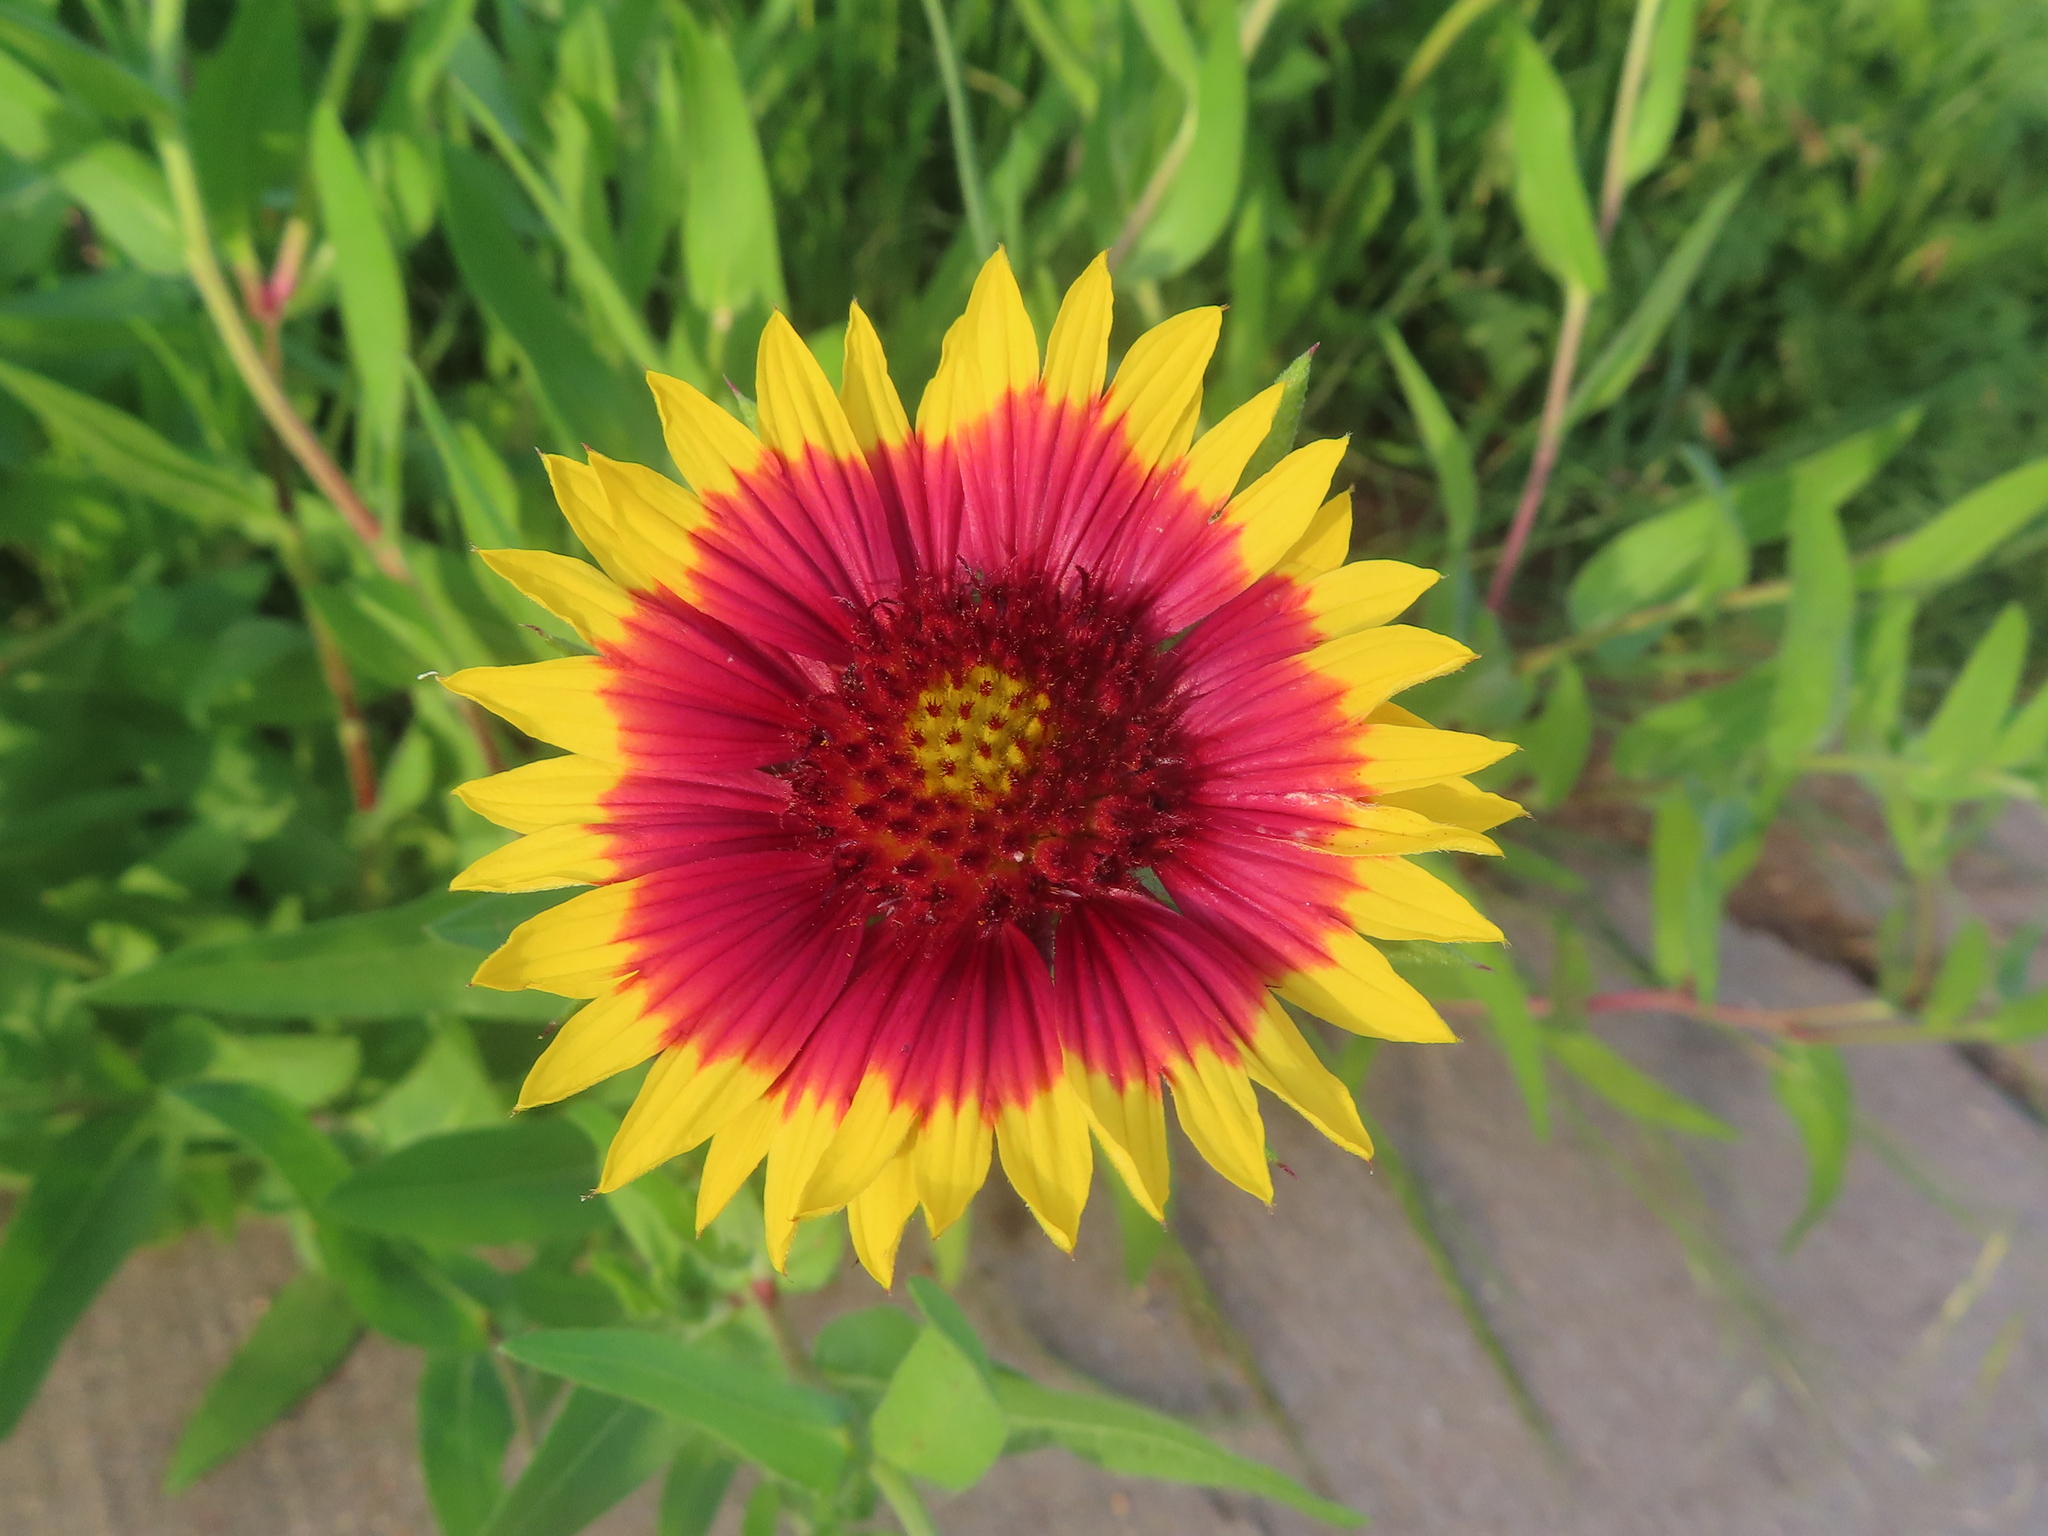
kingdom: Plantae
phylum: Tracheophyta
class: Magnoliopsida
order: Asterales
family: Asteraceae
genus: Gaillardia
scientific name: Gaillardia pulchella
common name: Firewheel
